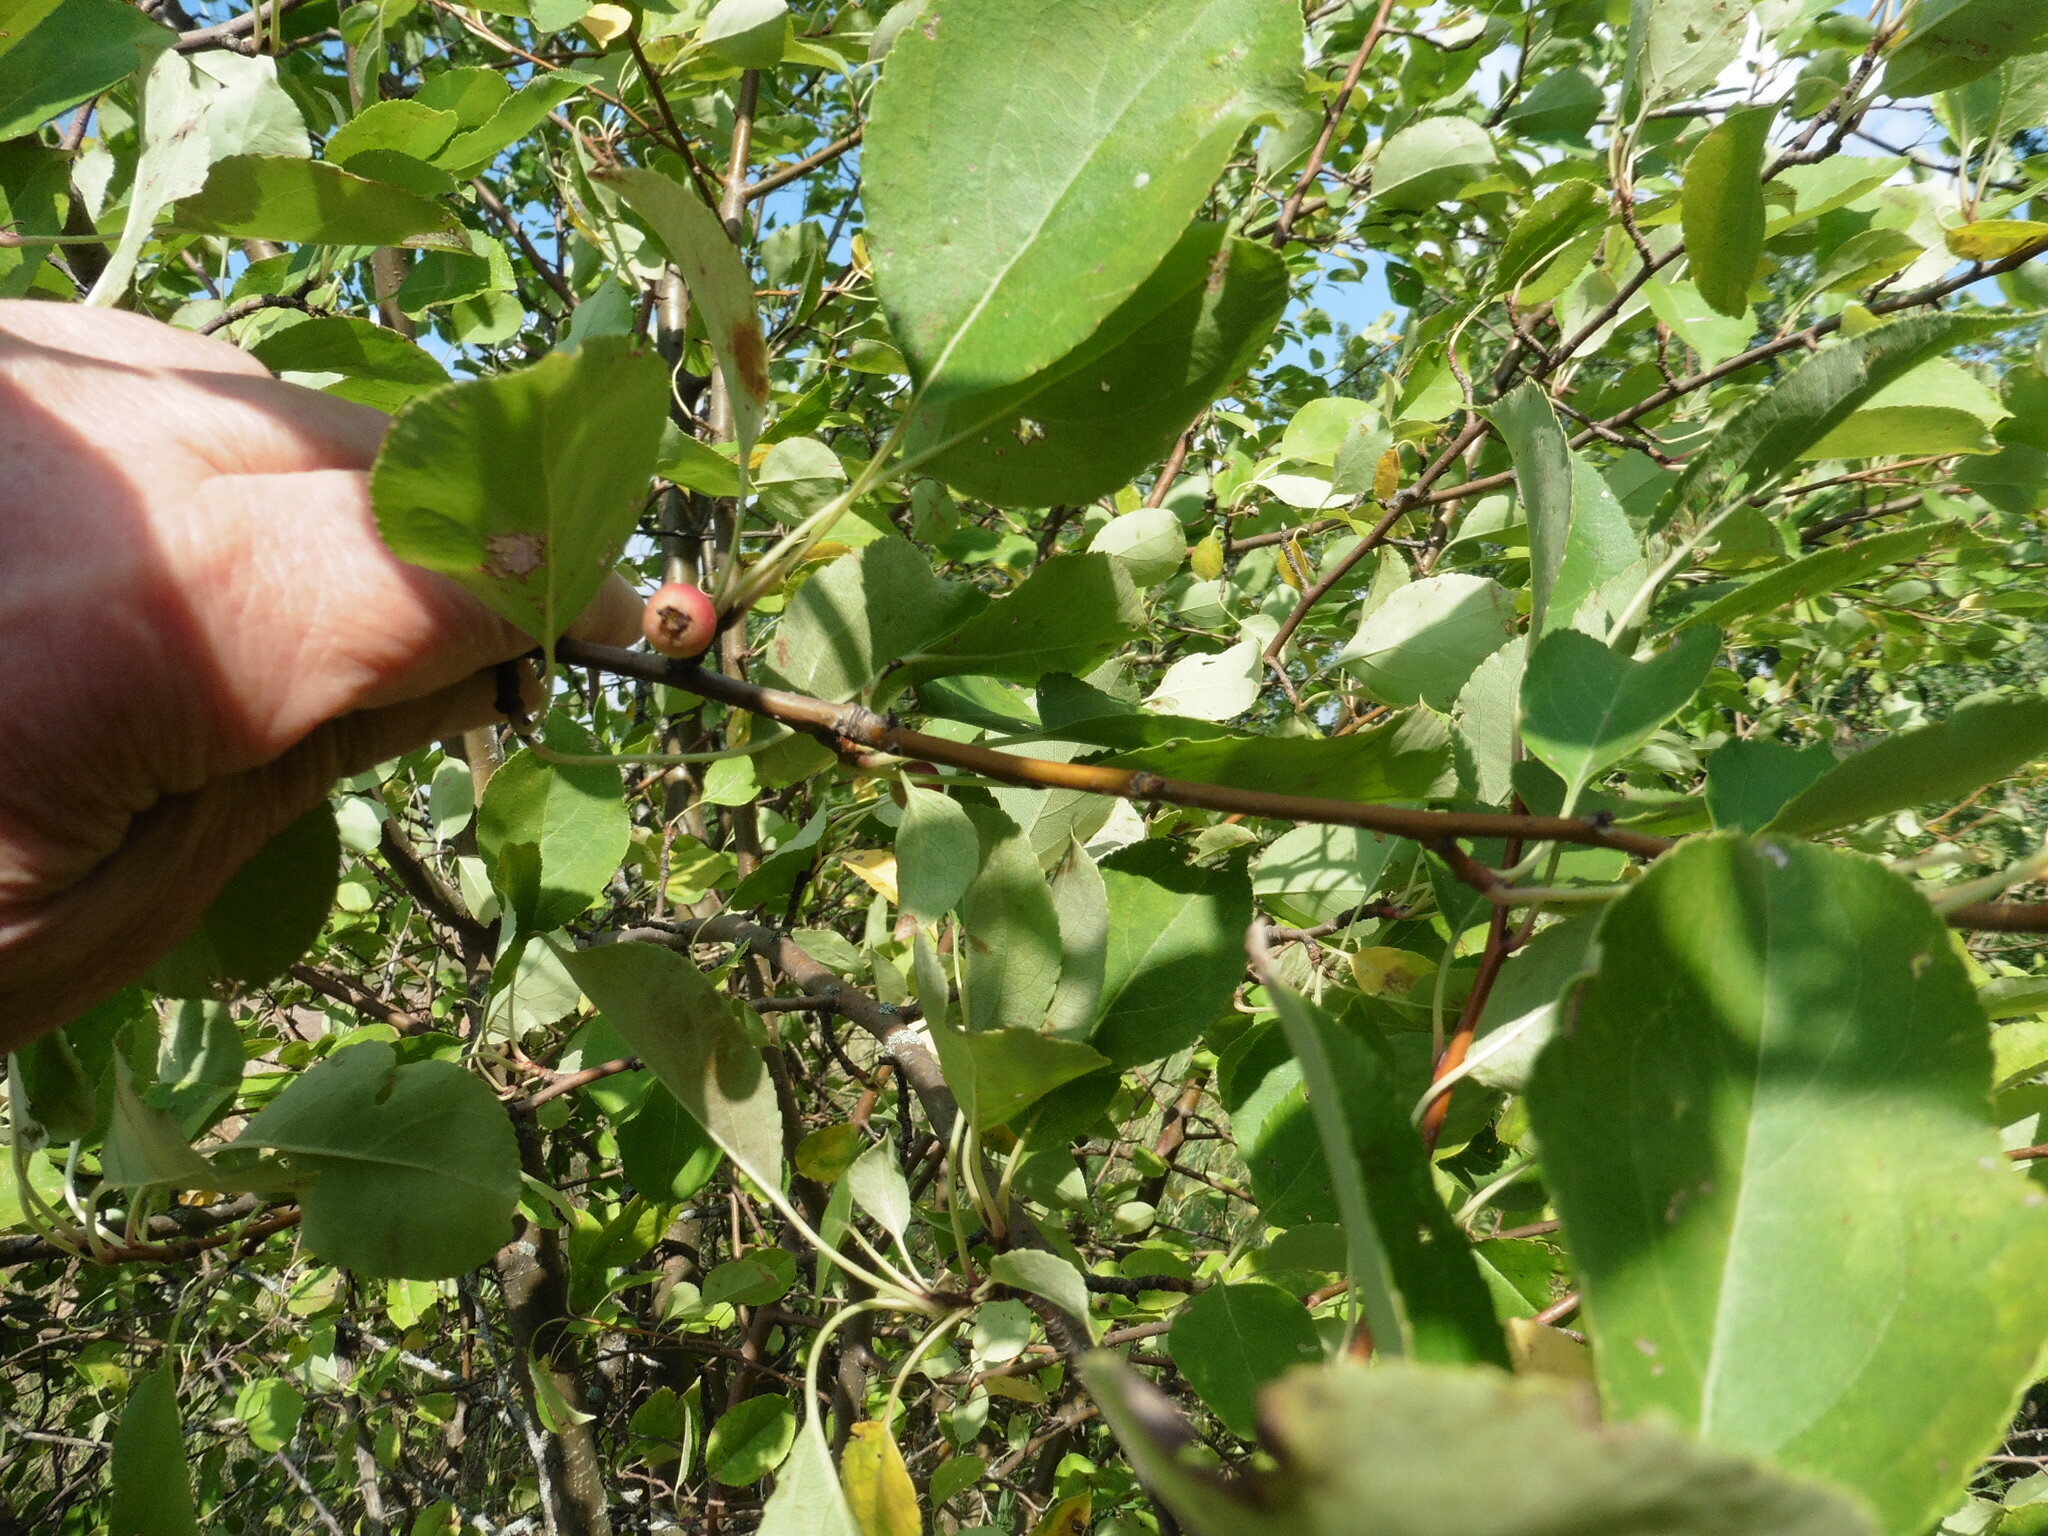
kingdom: Plantae
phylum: Tracheophyta
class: Magnoliopsida
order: Rosales
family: Rosaceae
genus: Malus
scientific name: Malus prunifolia
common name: Chinese apple
